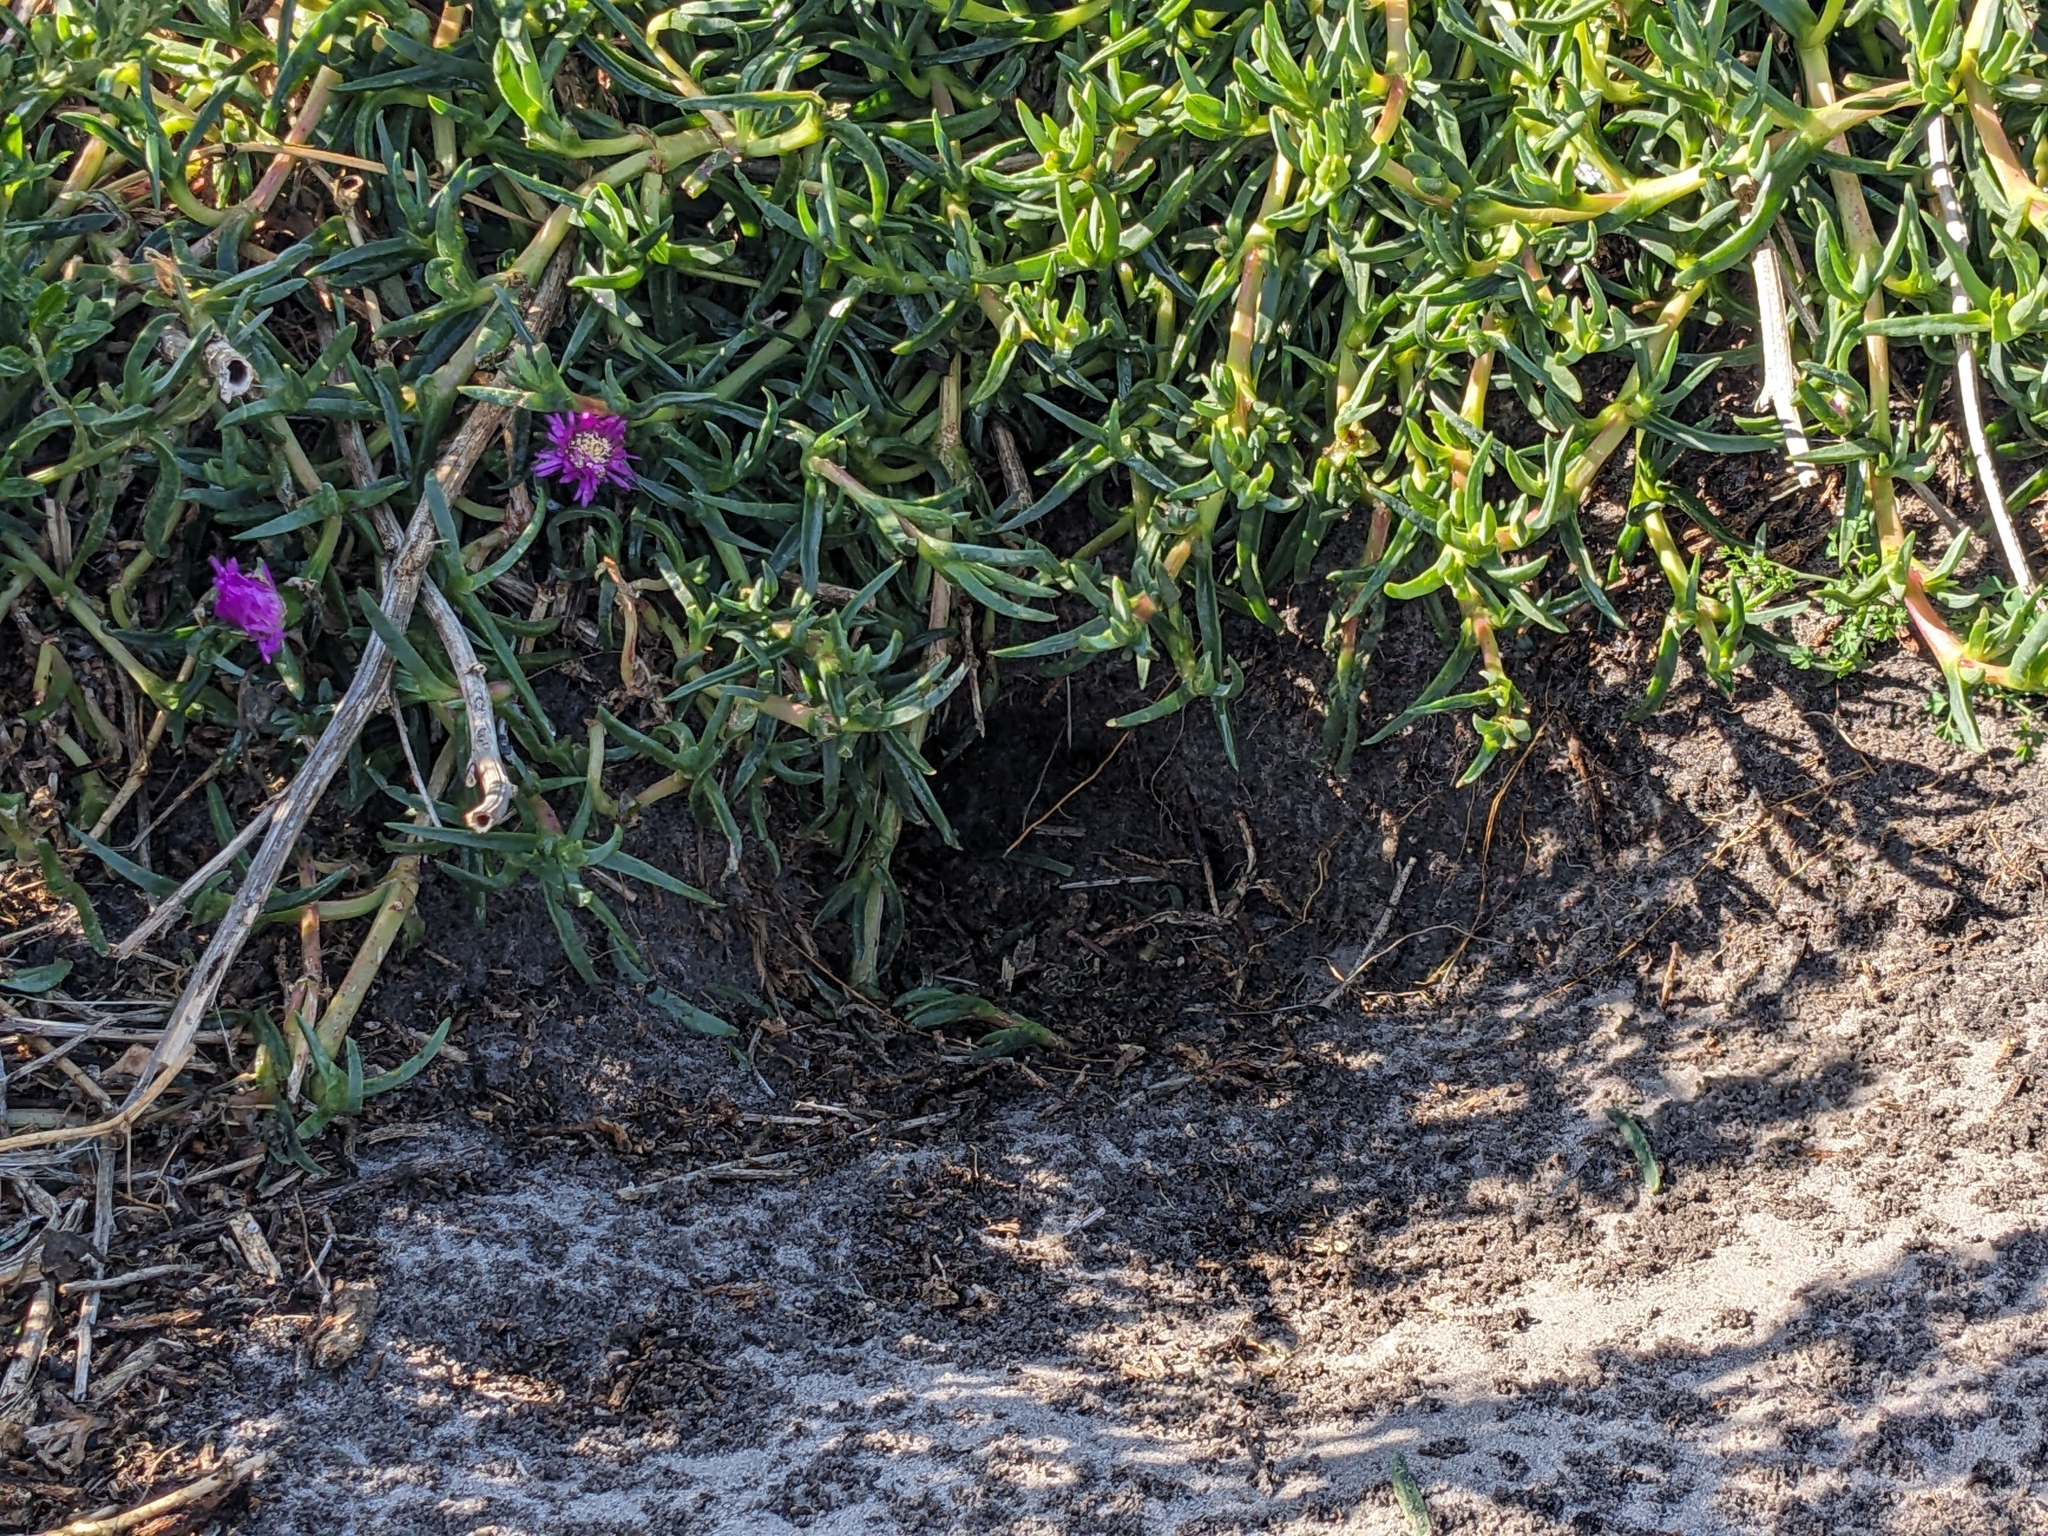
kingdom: Animalia
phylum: Chordata
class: Aves
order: Sphenisciformes
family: Spheniscidae
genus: Eudyptula
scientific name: Eudyptula minor
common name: Little penguin
